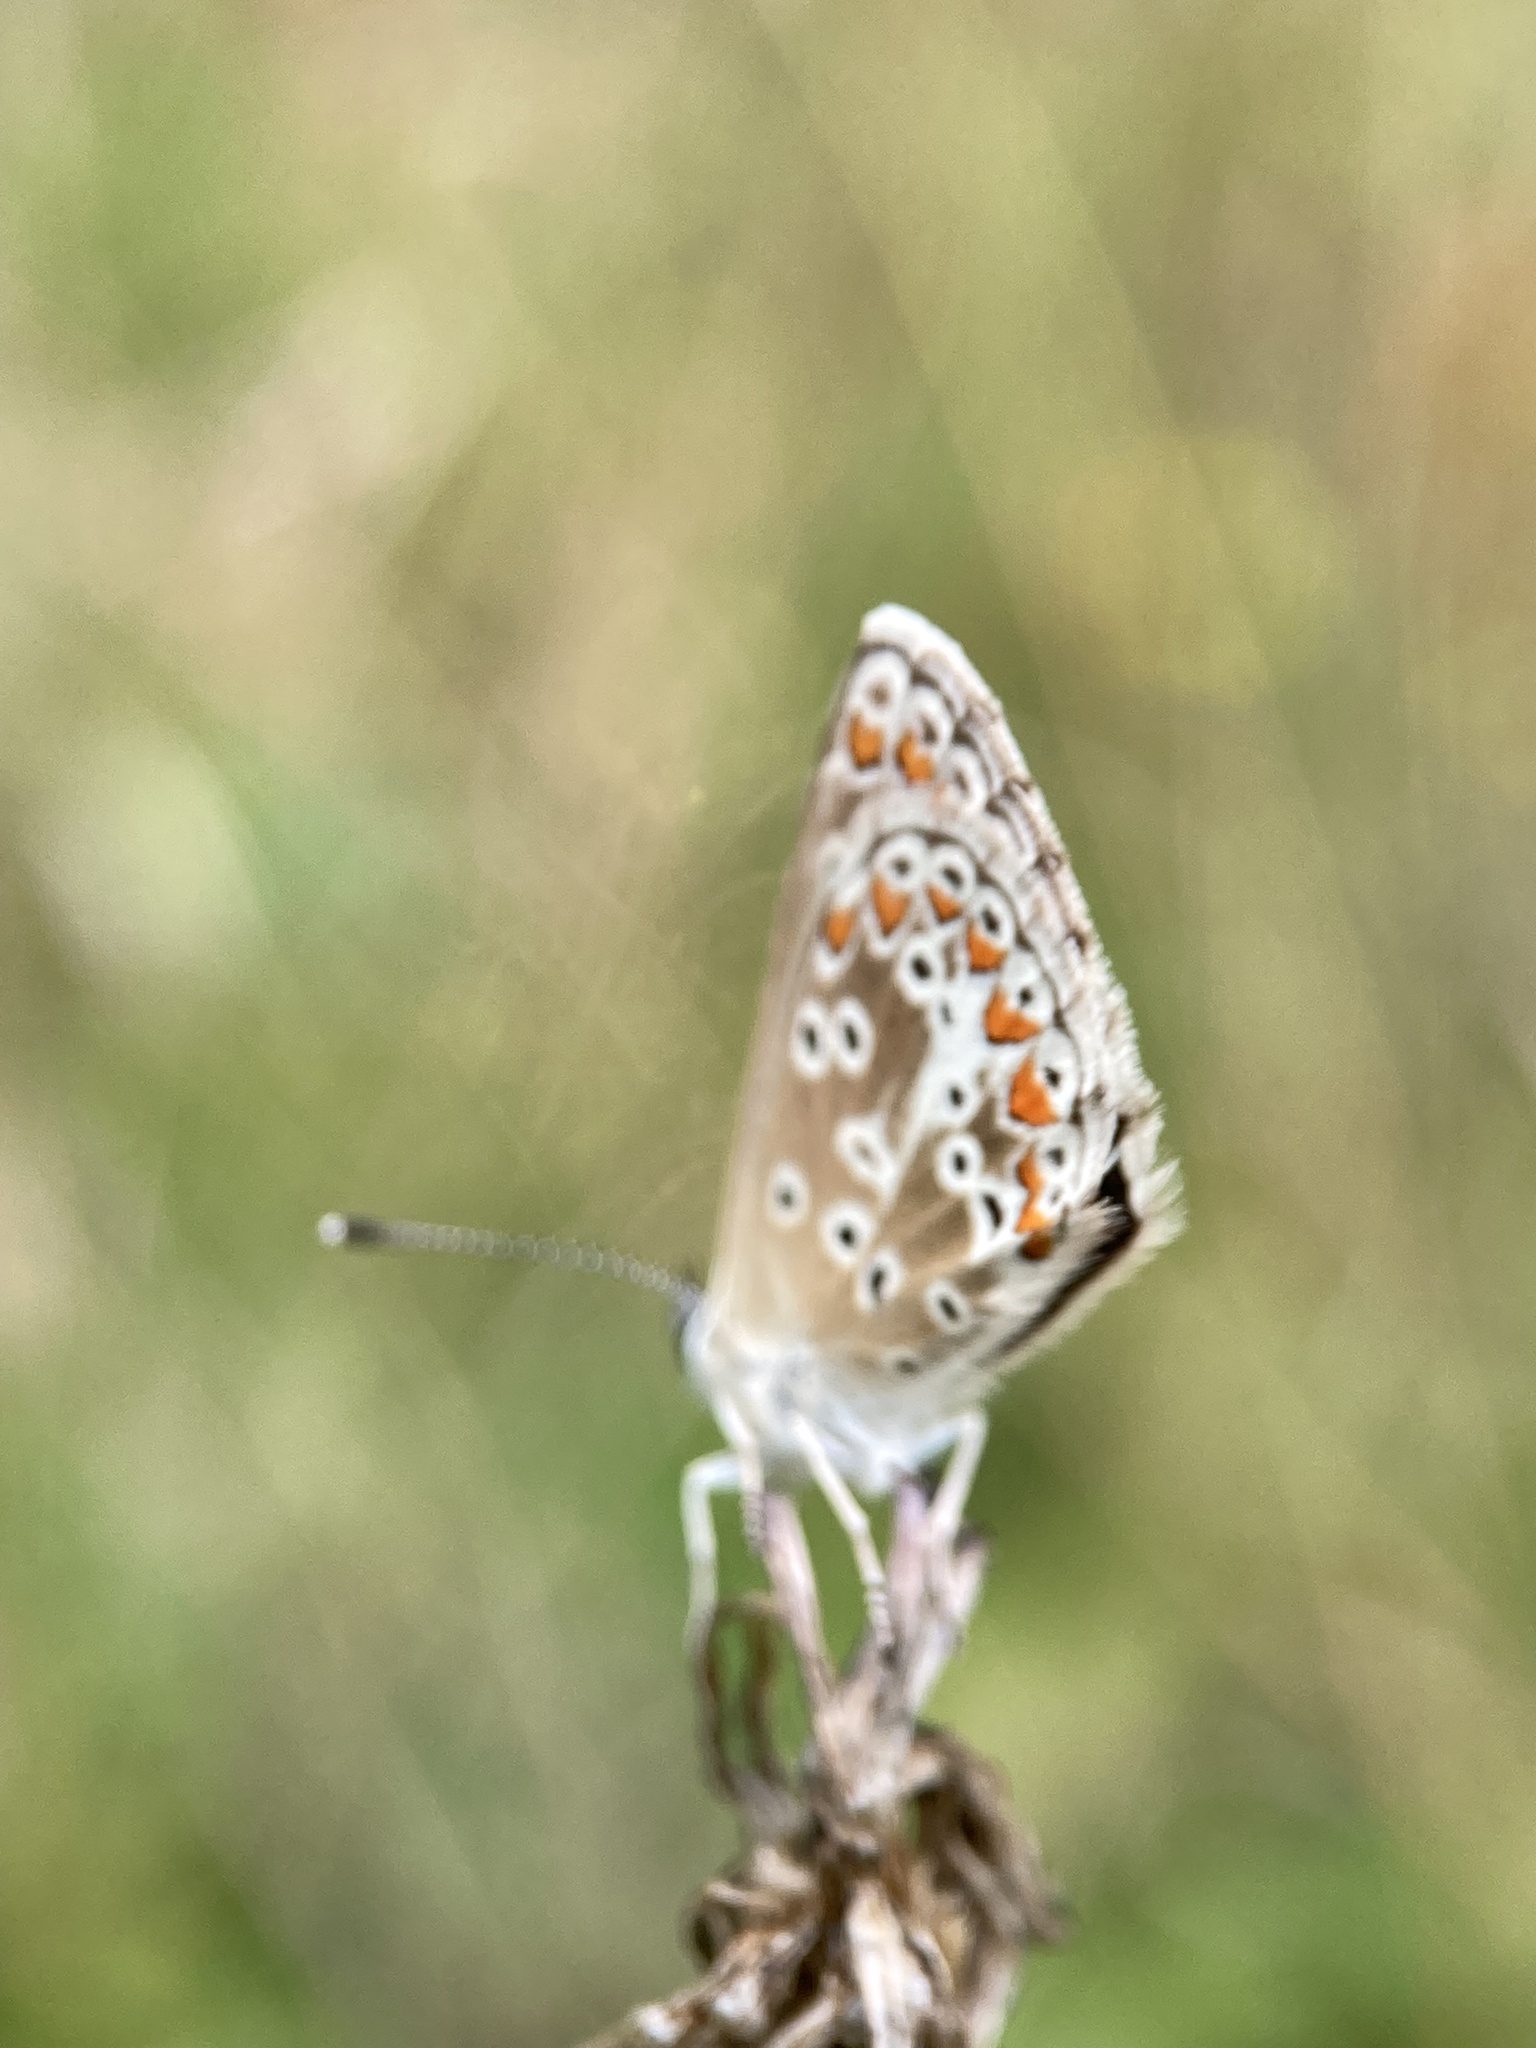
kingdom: Animalia
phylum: Arthropoda
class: Insecta
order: Lepidoptera
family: Lycaenidae
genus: Lysandra
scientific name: Lysandra coridon
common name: Chalkhill blue
